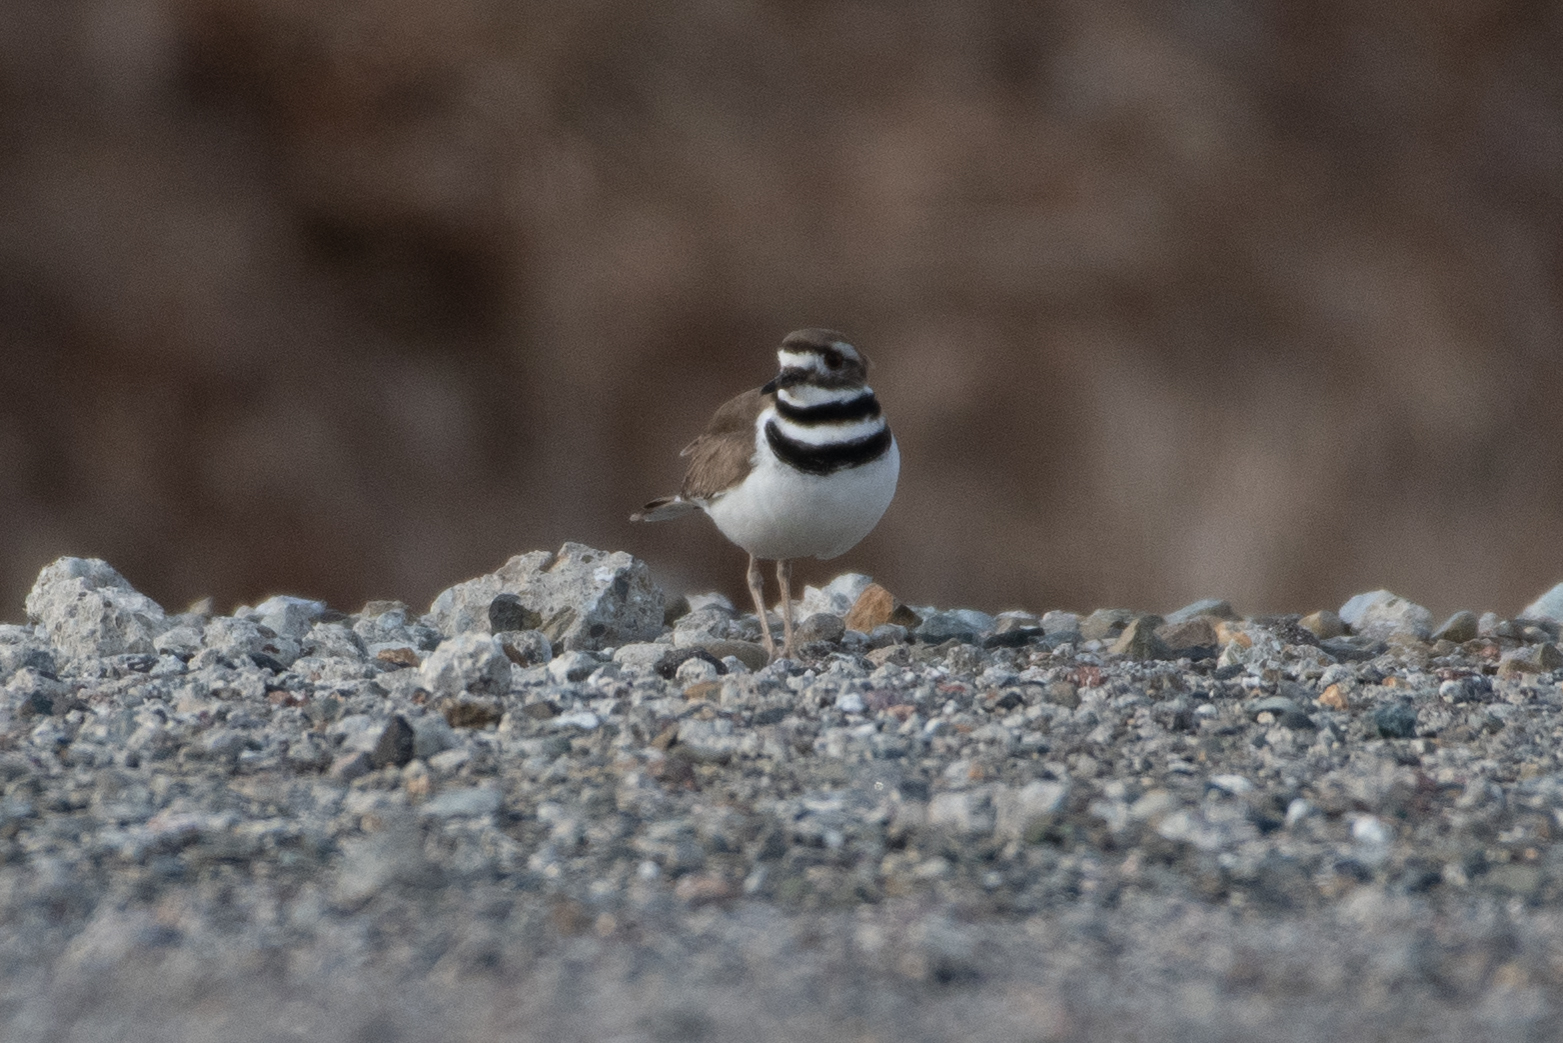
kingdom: Animalia
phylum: Chordata
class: Aves
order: Charadriiformes
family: Charadriidae
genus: Charadrius
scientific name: Charadrius vociferus
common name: Killdeer
